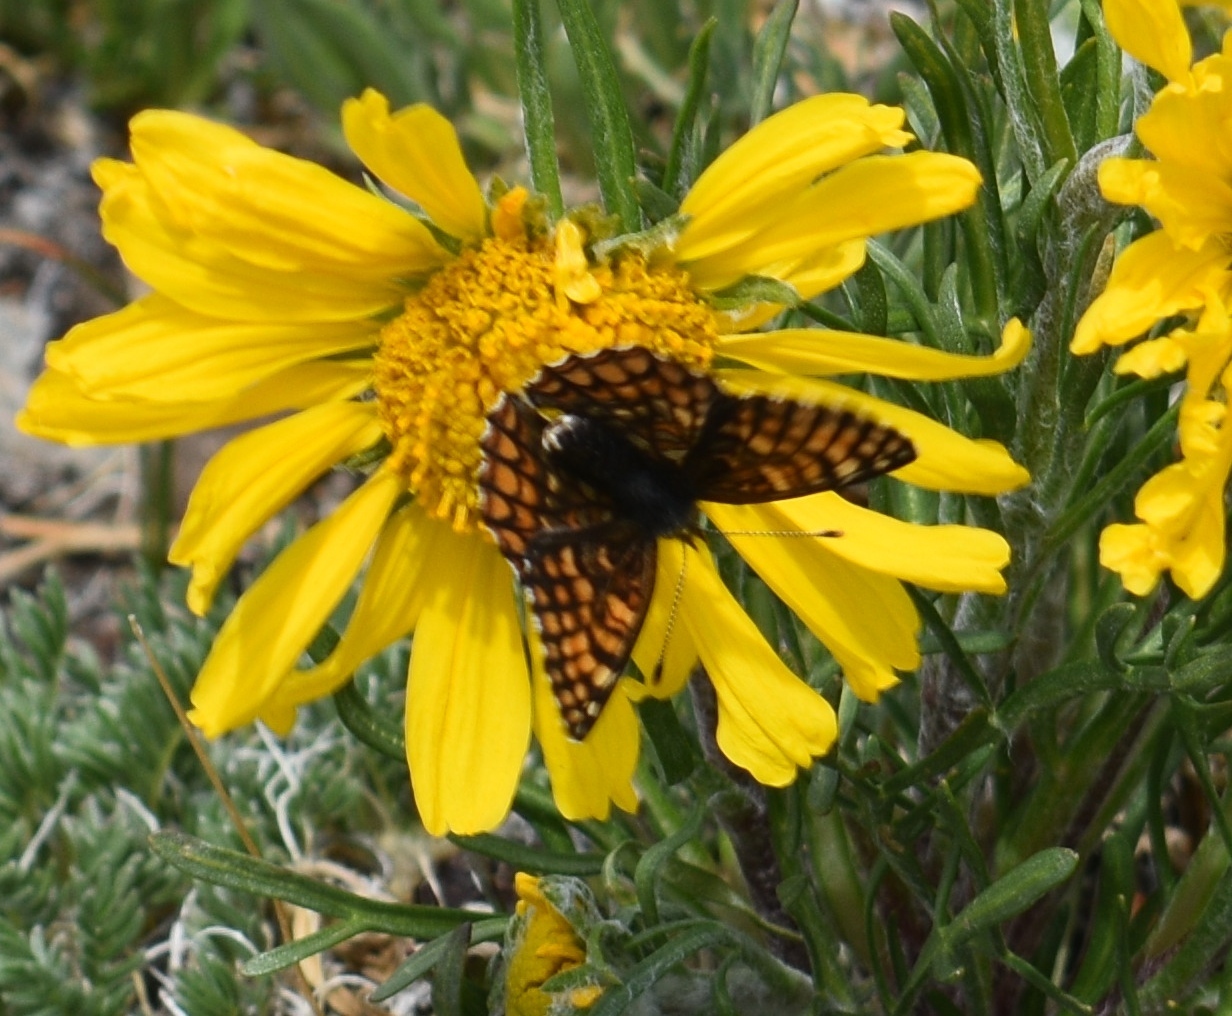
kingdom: Animalia
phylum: Arthropoda
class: Insecta
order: Lepidoptera
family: Nymphalidae
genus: Chlosyne
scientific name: Chlosyne damoetas
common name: Rockslide checkerspot
